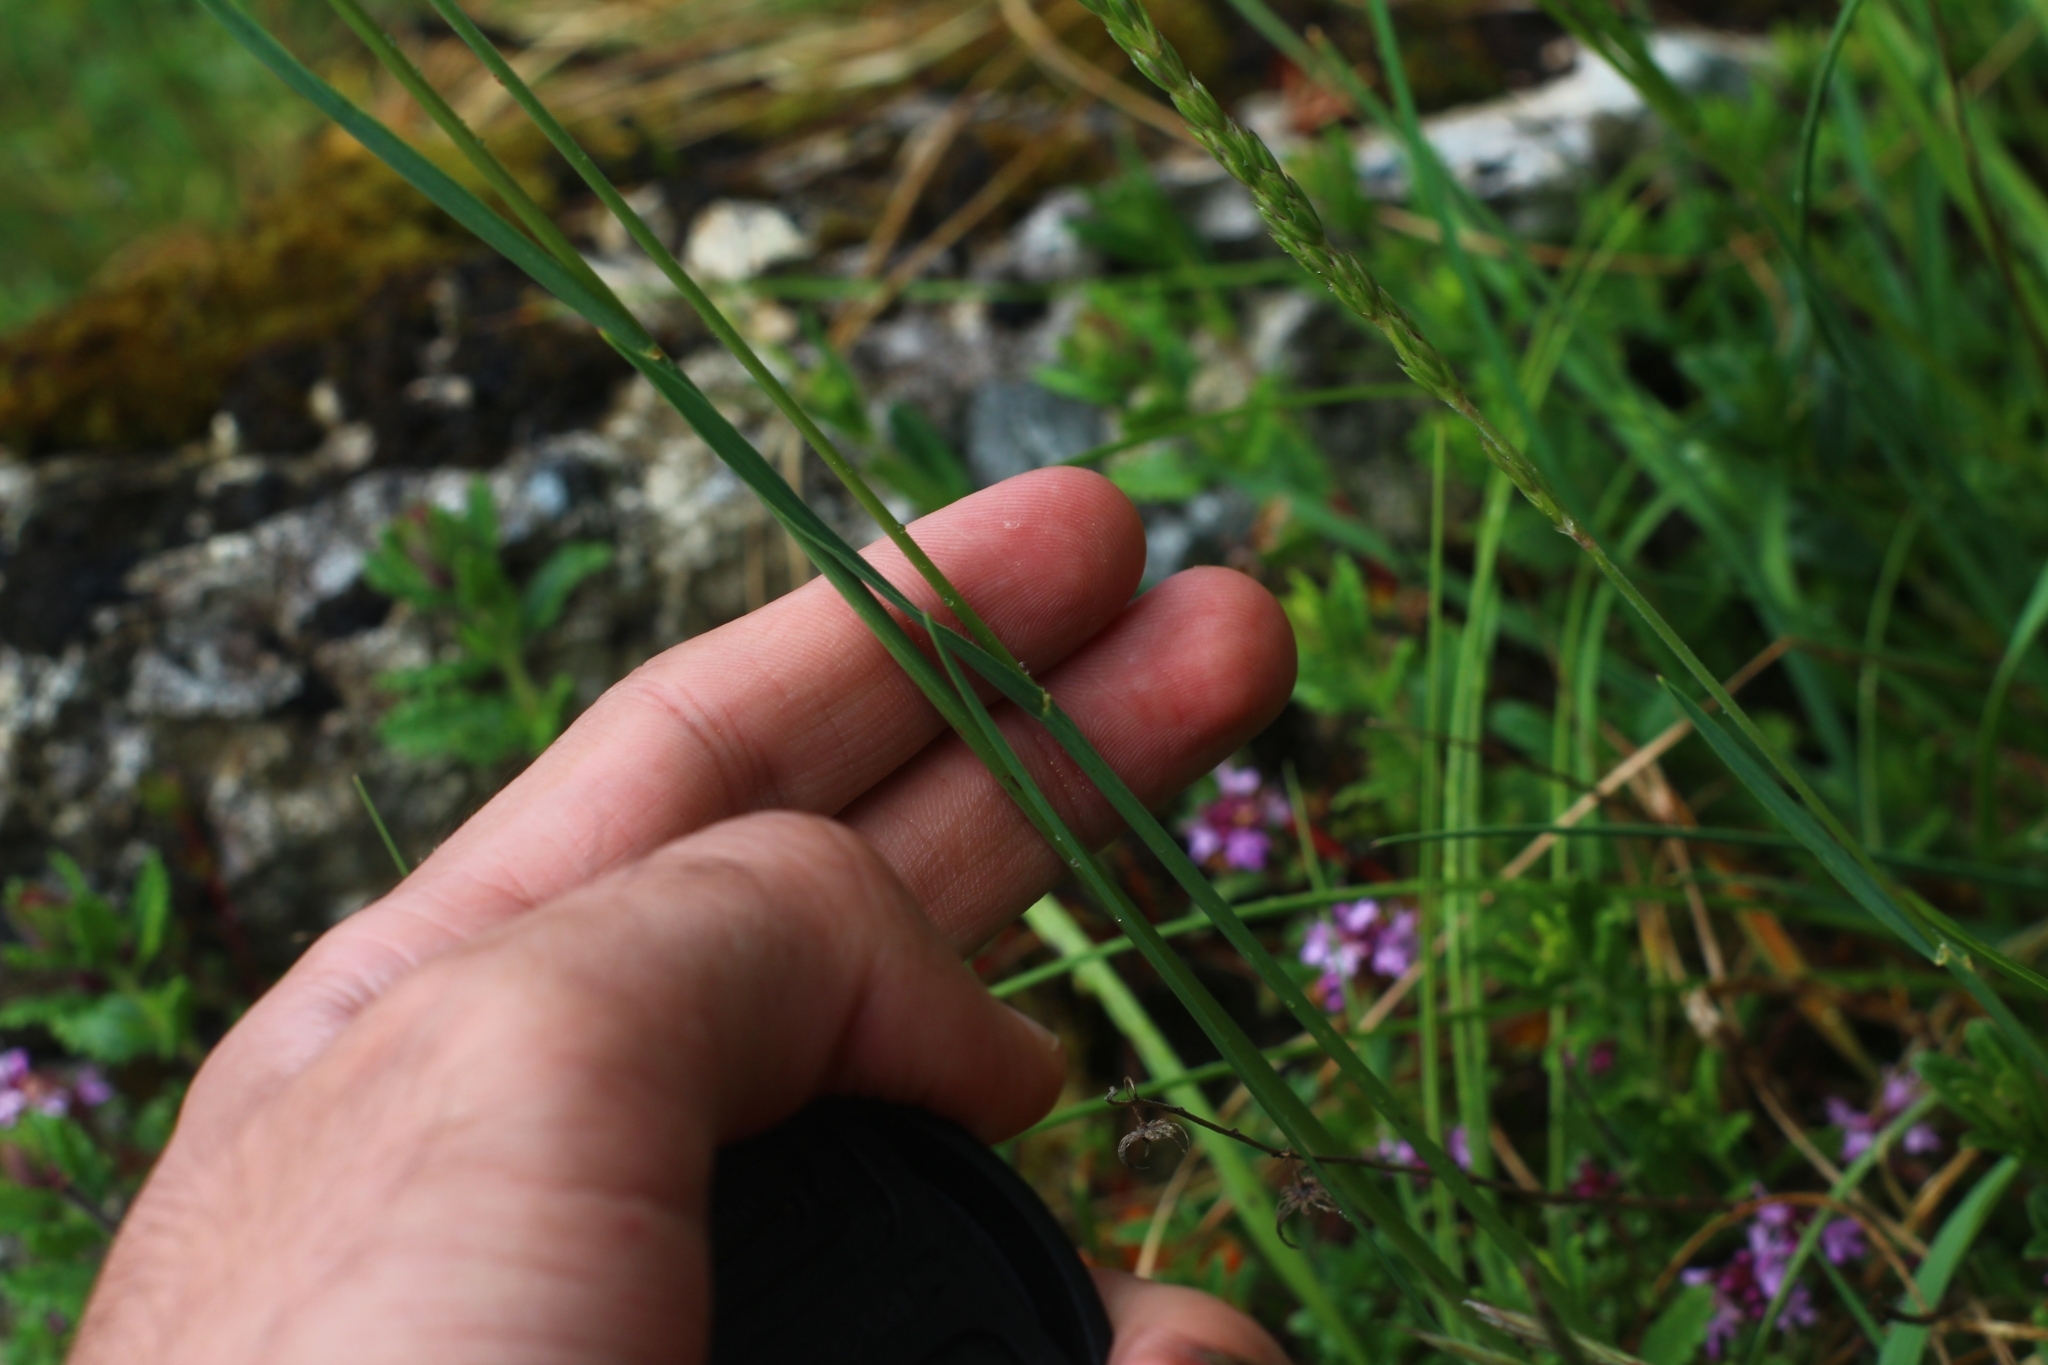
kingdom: Plantae
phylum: Tracheophyta
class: Liliopsida
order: Poales
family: Poaceae
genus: Koeleria
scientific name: Koeleria macrantha
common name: Crested hair-grass
